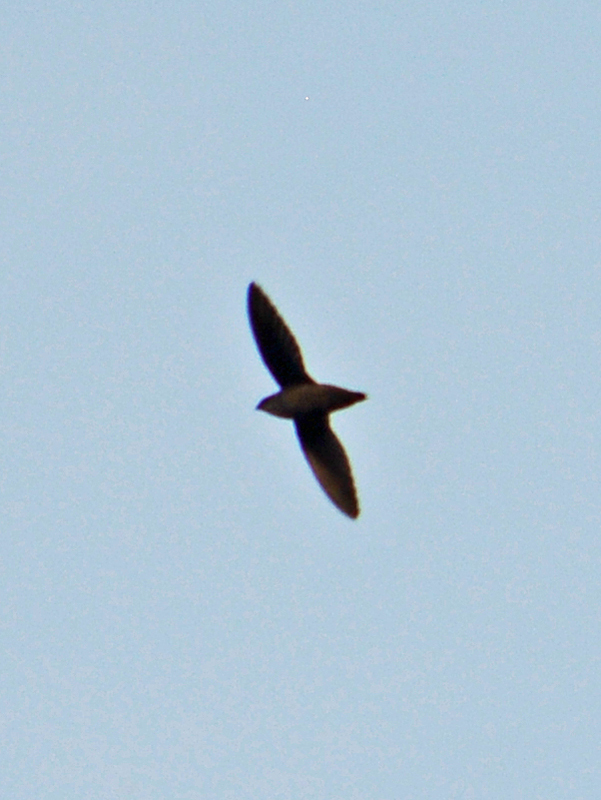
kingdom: Animalia
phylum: Chordata
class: Aves
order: Apodiformes
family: Apodidae
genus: Chaetura
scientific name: Chaetura vauxi
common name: Vaux's swift
